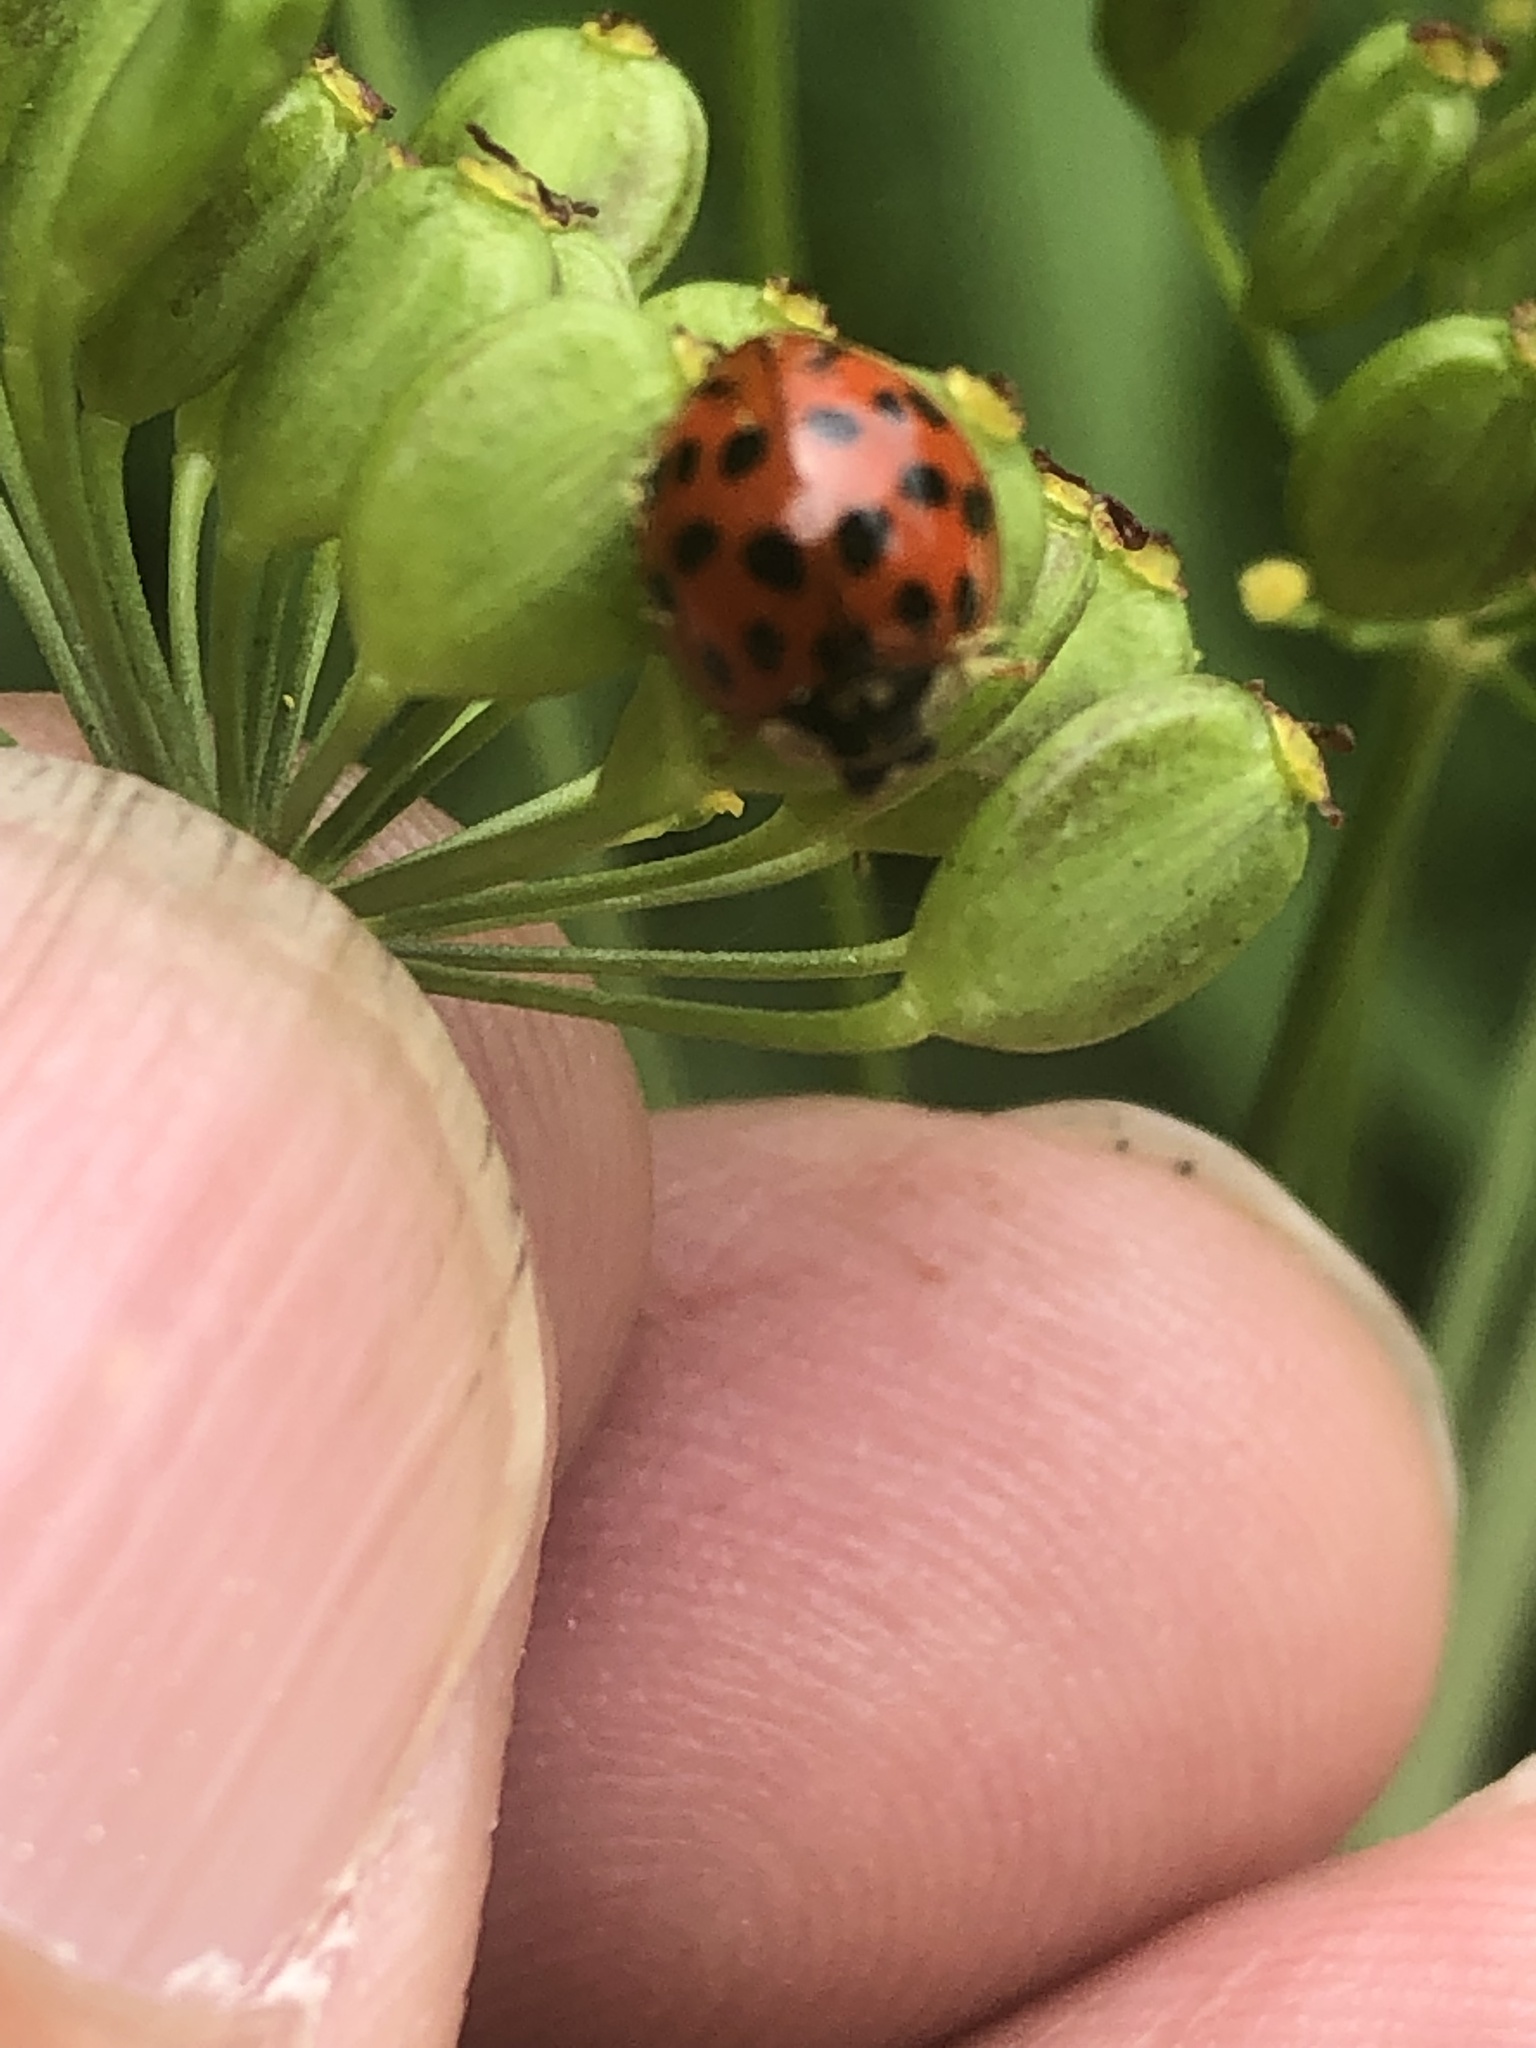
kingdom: Animalia
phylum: Arthropoda
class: Insecta
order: Coleoptera
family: Coccinellidae
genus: Harmonia
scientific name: Harmonia axyridis
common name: Harlequin ladybird
